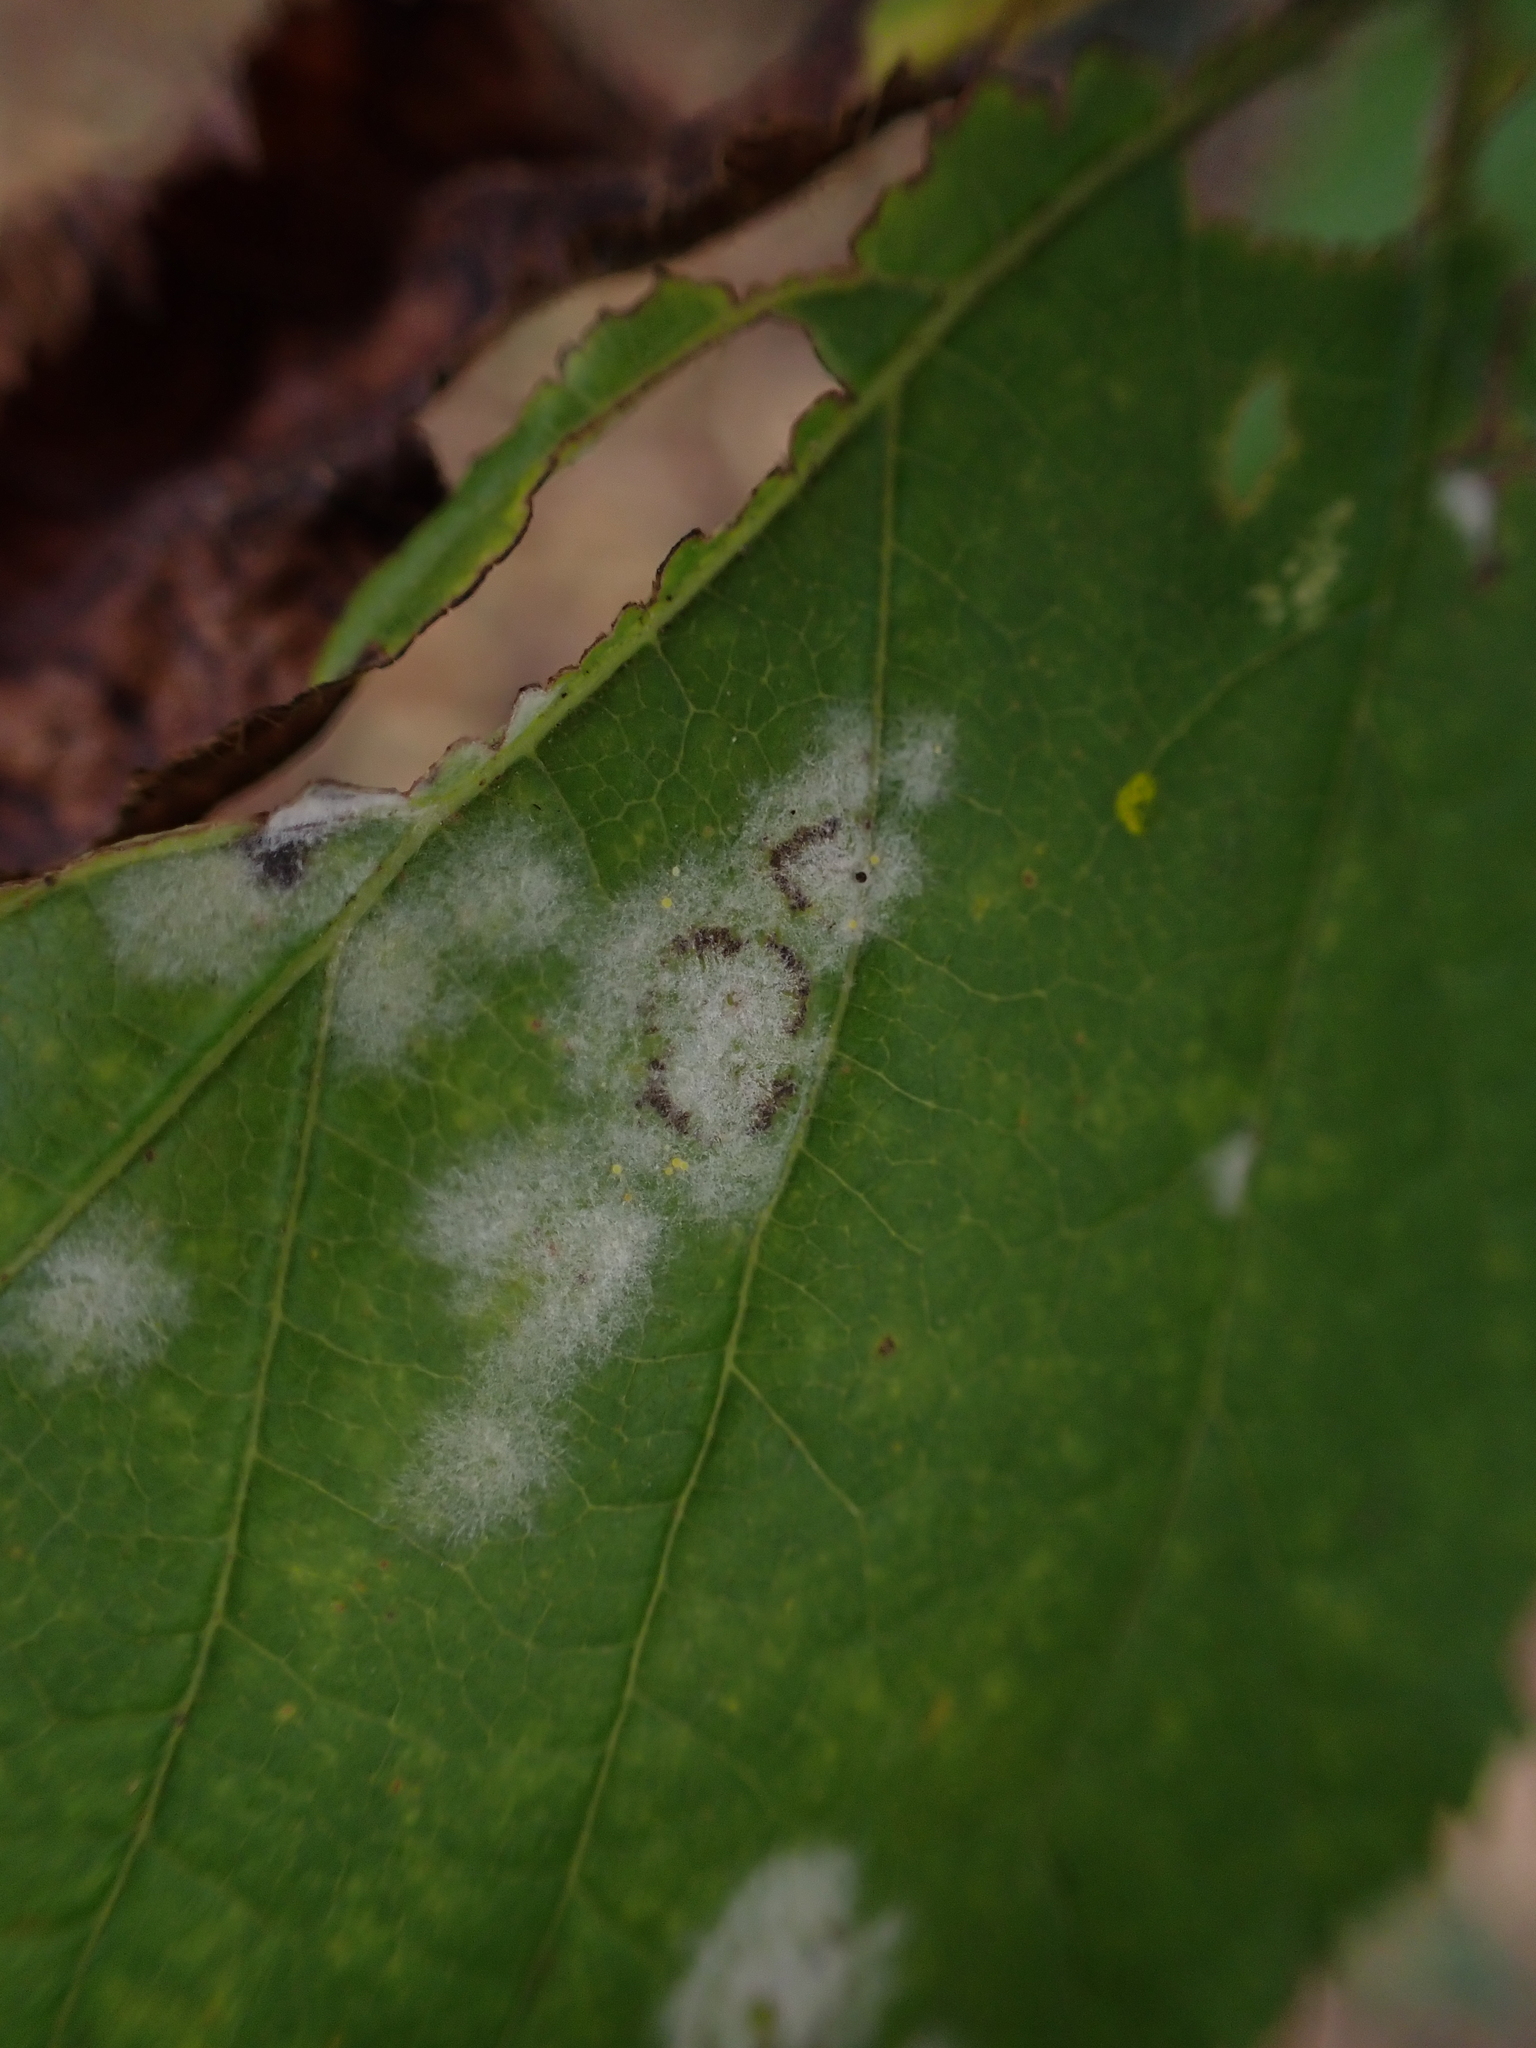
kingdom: Fungi
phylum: Ascomycota
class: Leotiomycetes
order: Helotiales
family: Erysiphaceae
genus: Sawadaea
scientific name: Sawadaea tulasnei
